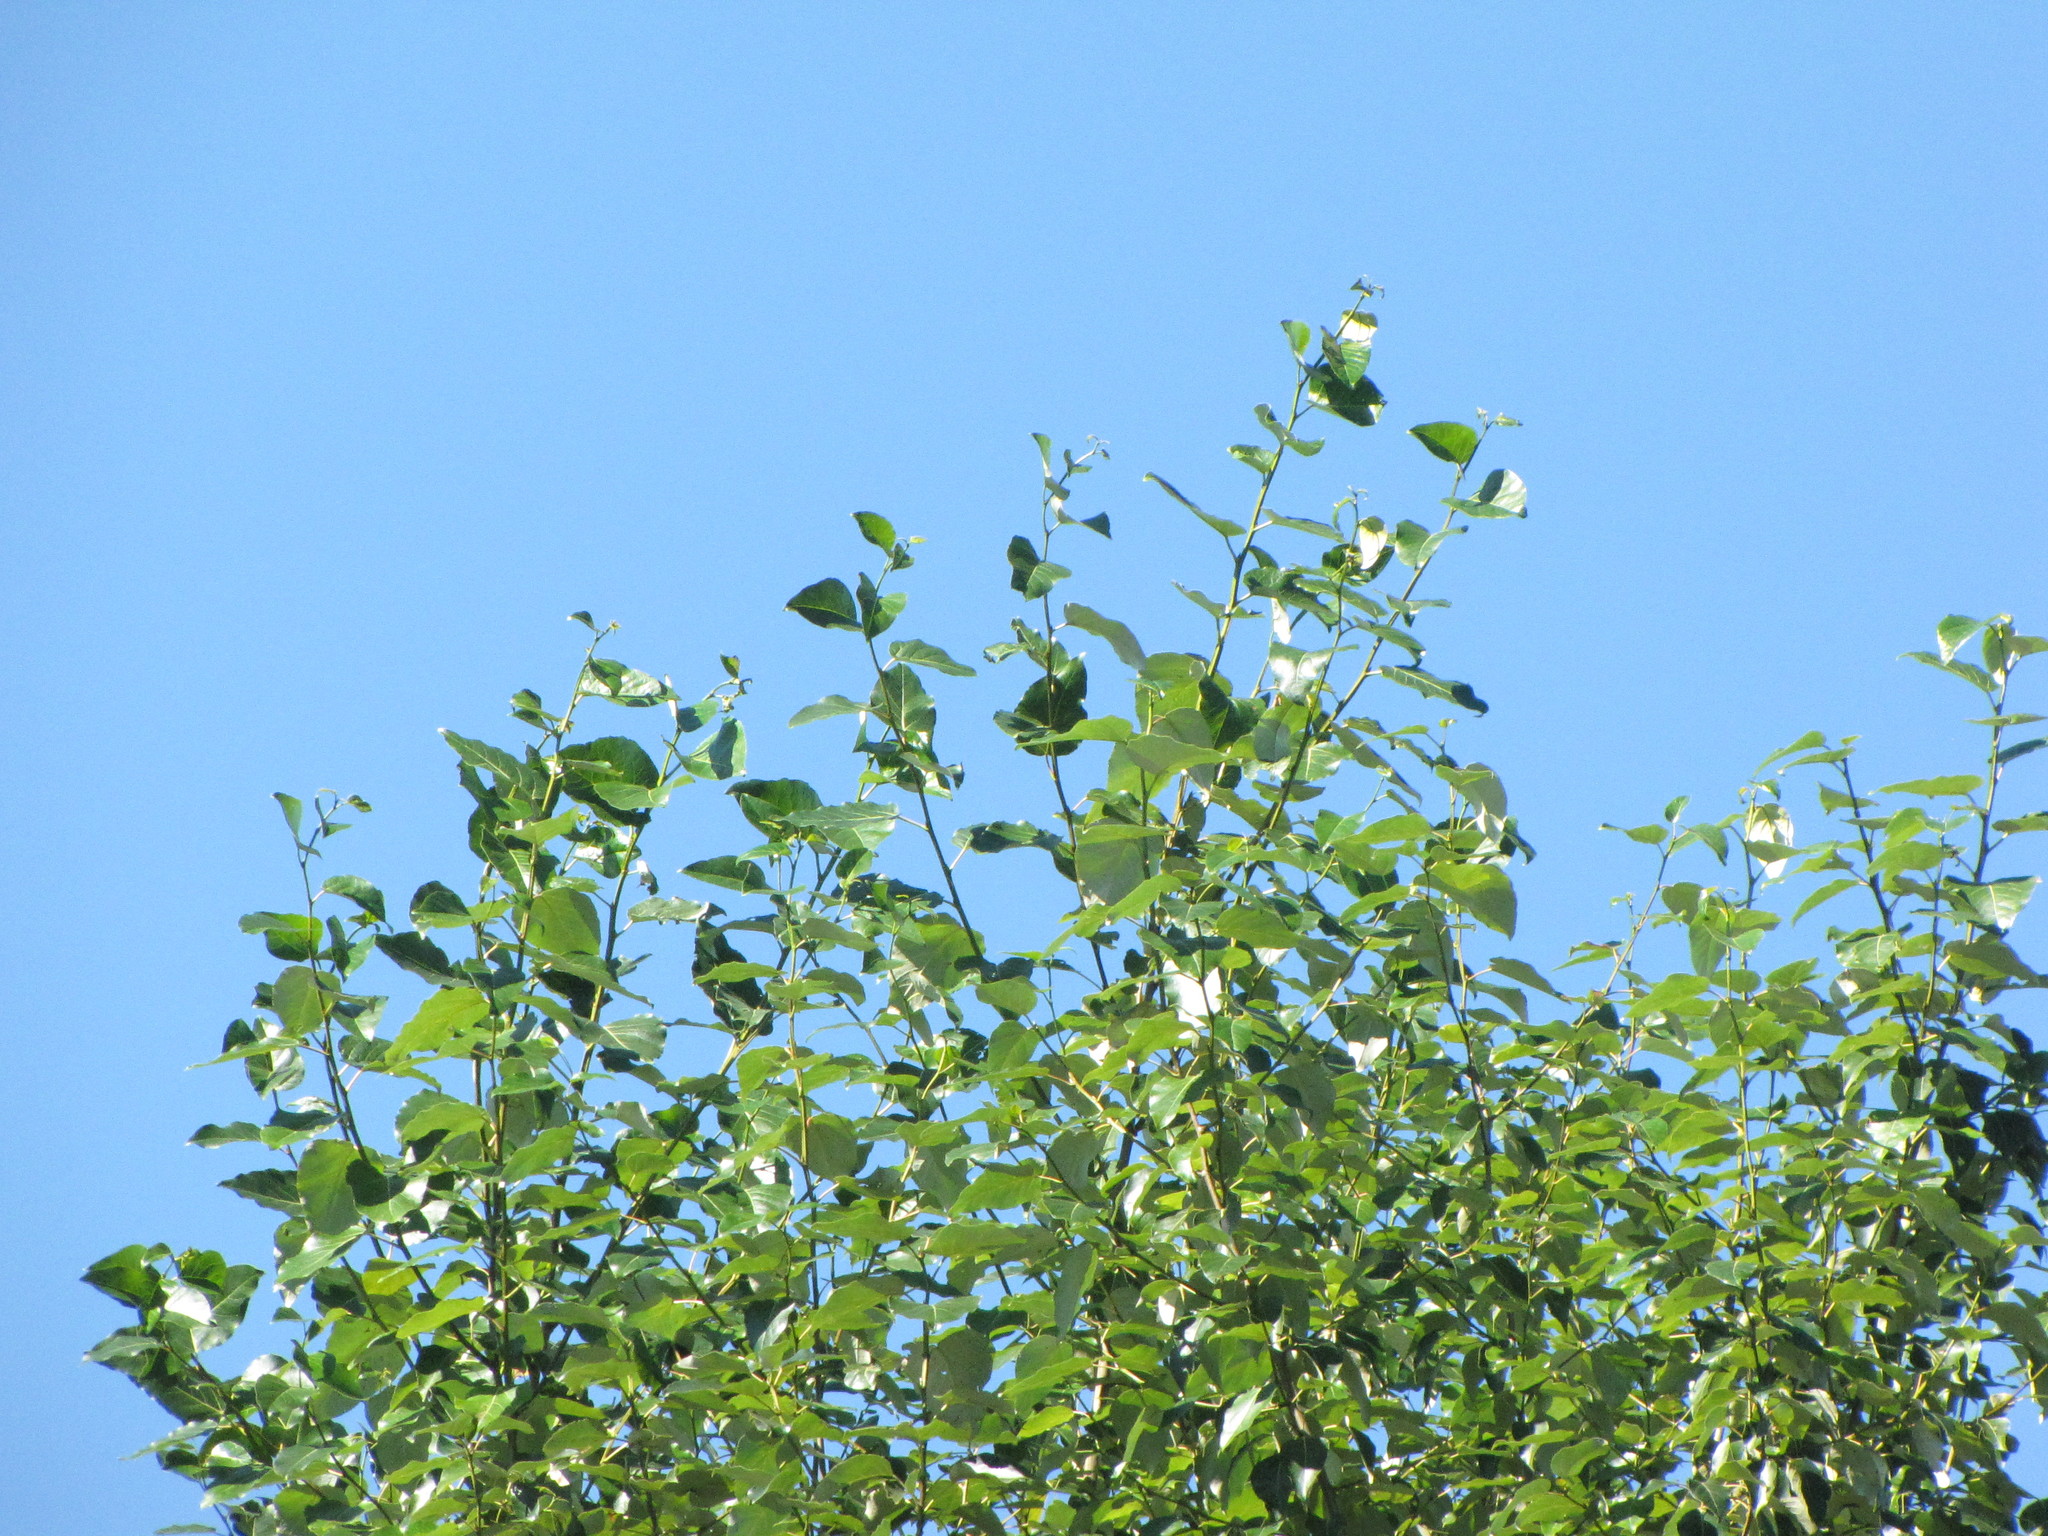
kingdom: Plantae
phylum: Tracheophyta
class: Magnoliopsida
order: Malpighiales
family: Salicaceae
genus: Populus
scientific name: Populus trichocarpa
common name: Black cottonwood
